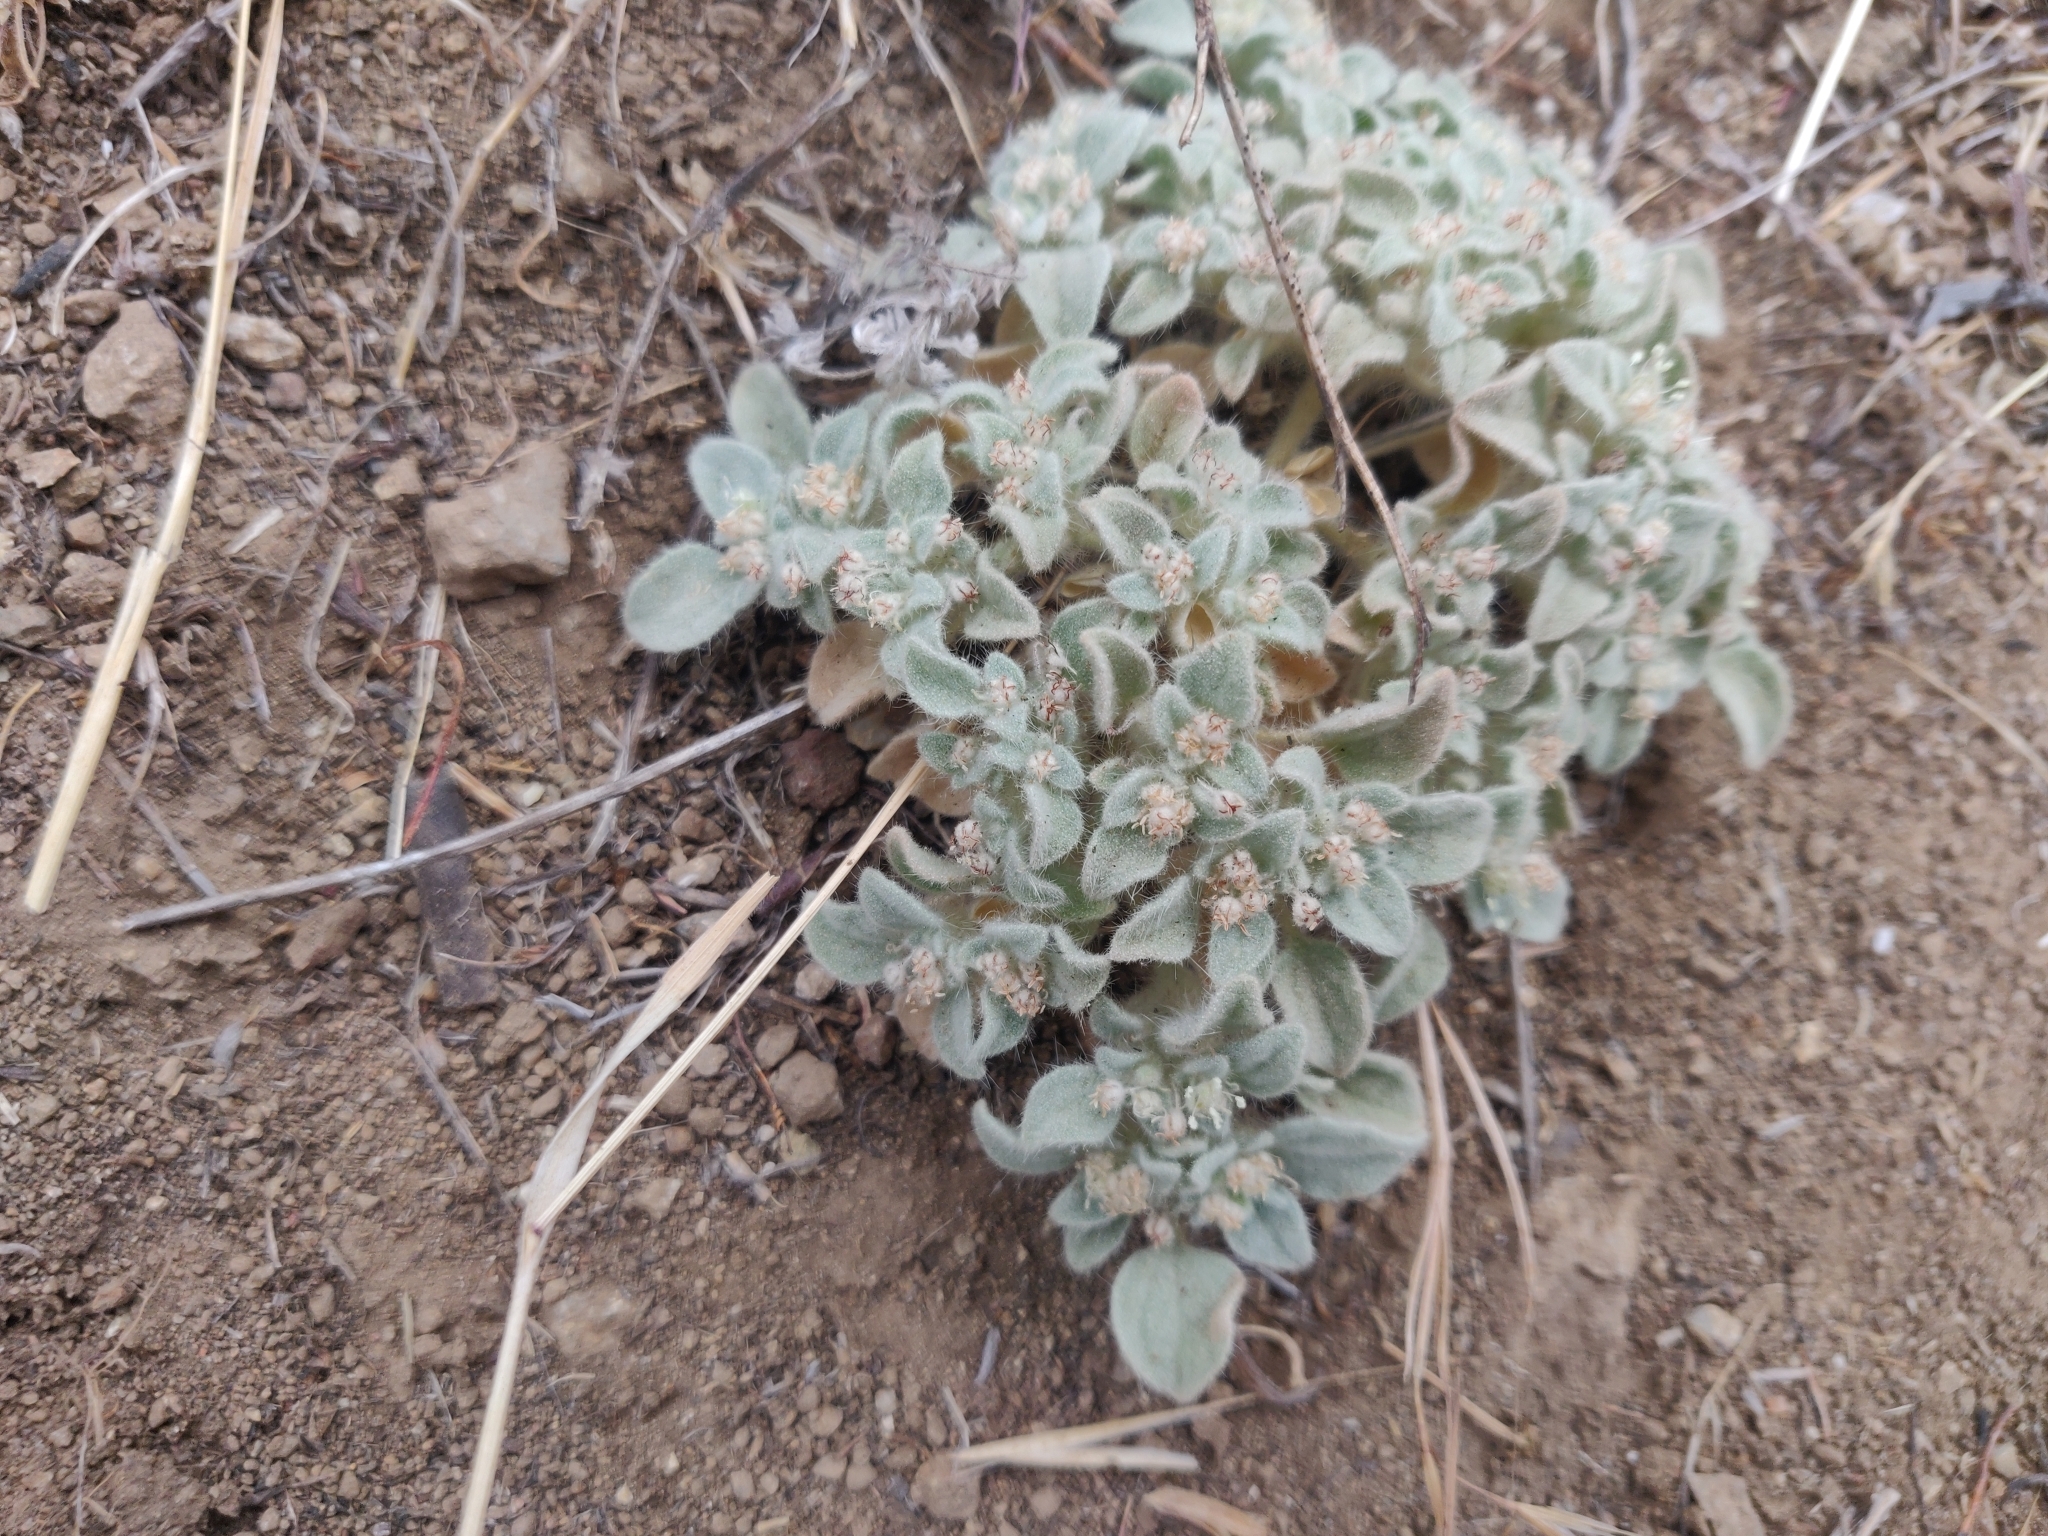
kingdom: Plantae
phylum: Tracheophyta
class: Magnoliopsida
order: Malpighiales
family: Euphorbiaceae
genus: Croton
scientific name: Croton setiger
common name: Dove weed
